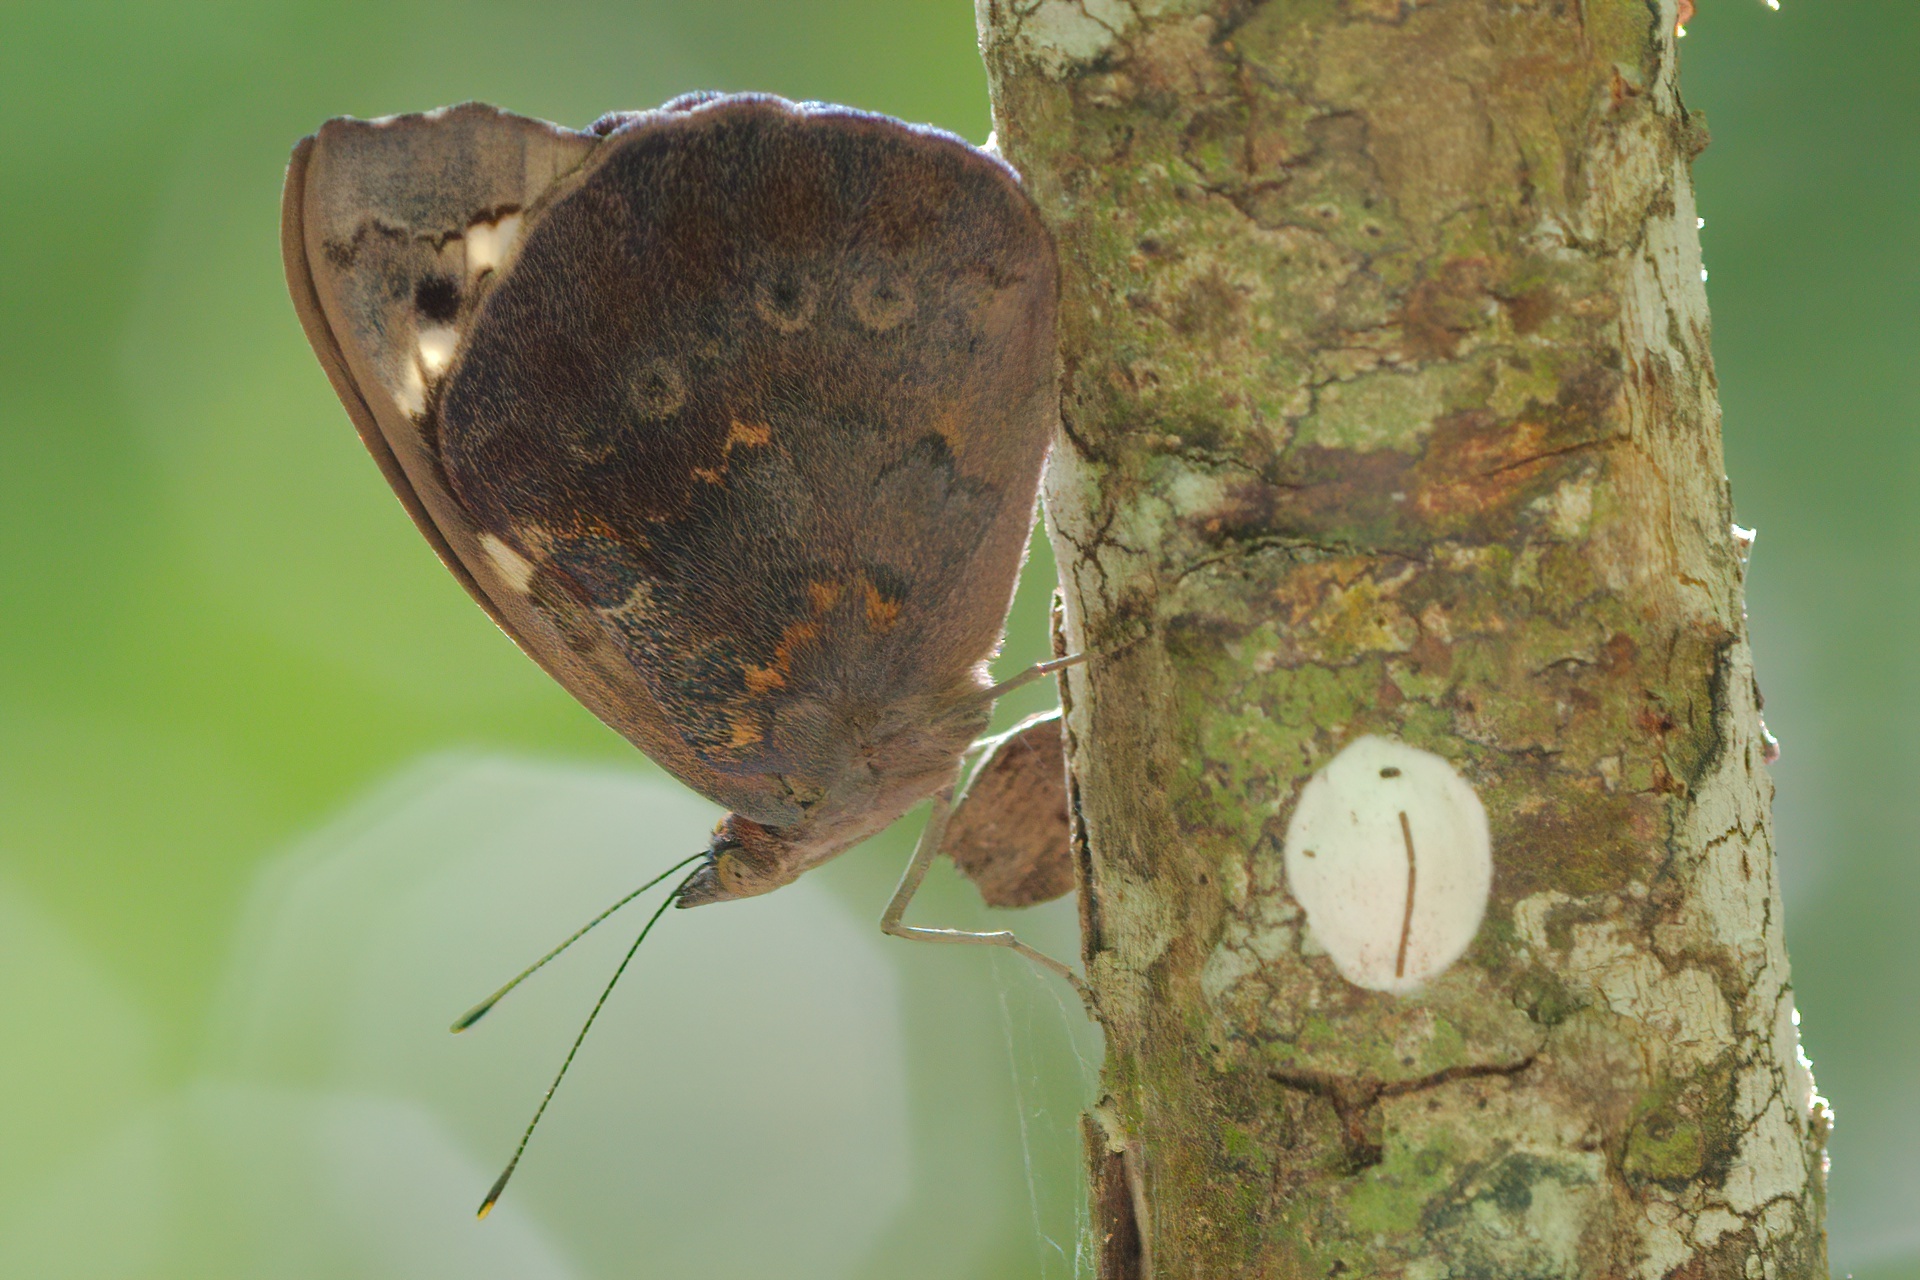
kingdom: Animalia
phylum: Arthropoda
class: Insecta
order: Lepidoptera
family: Nymphalidae
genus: Eunica
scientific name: Eunica tatila
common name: Florida purplewing
